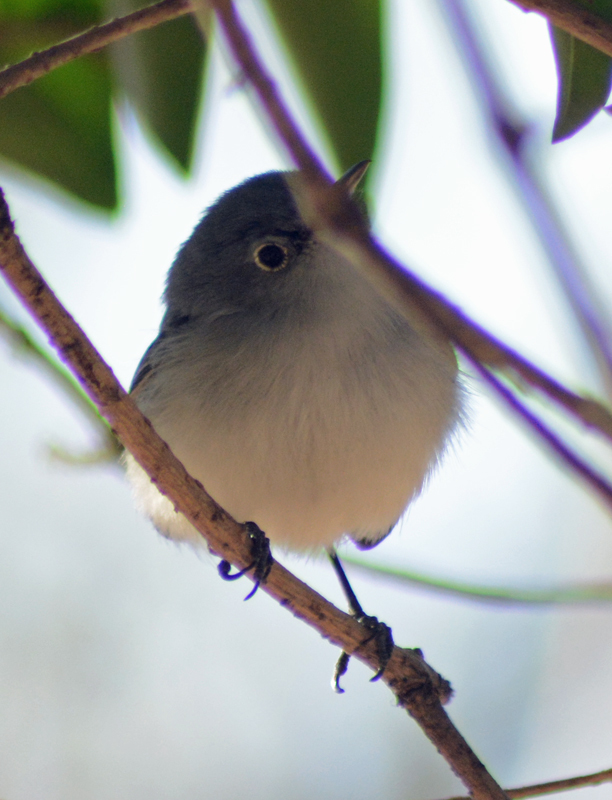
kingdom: Animalia
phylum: Chordata
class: Aves
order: Passeriformes
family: Polioptilidae
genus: Polioptila
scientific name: Polioptila caerulea
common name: Blue-gray gnatcatcher
